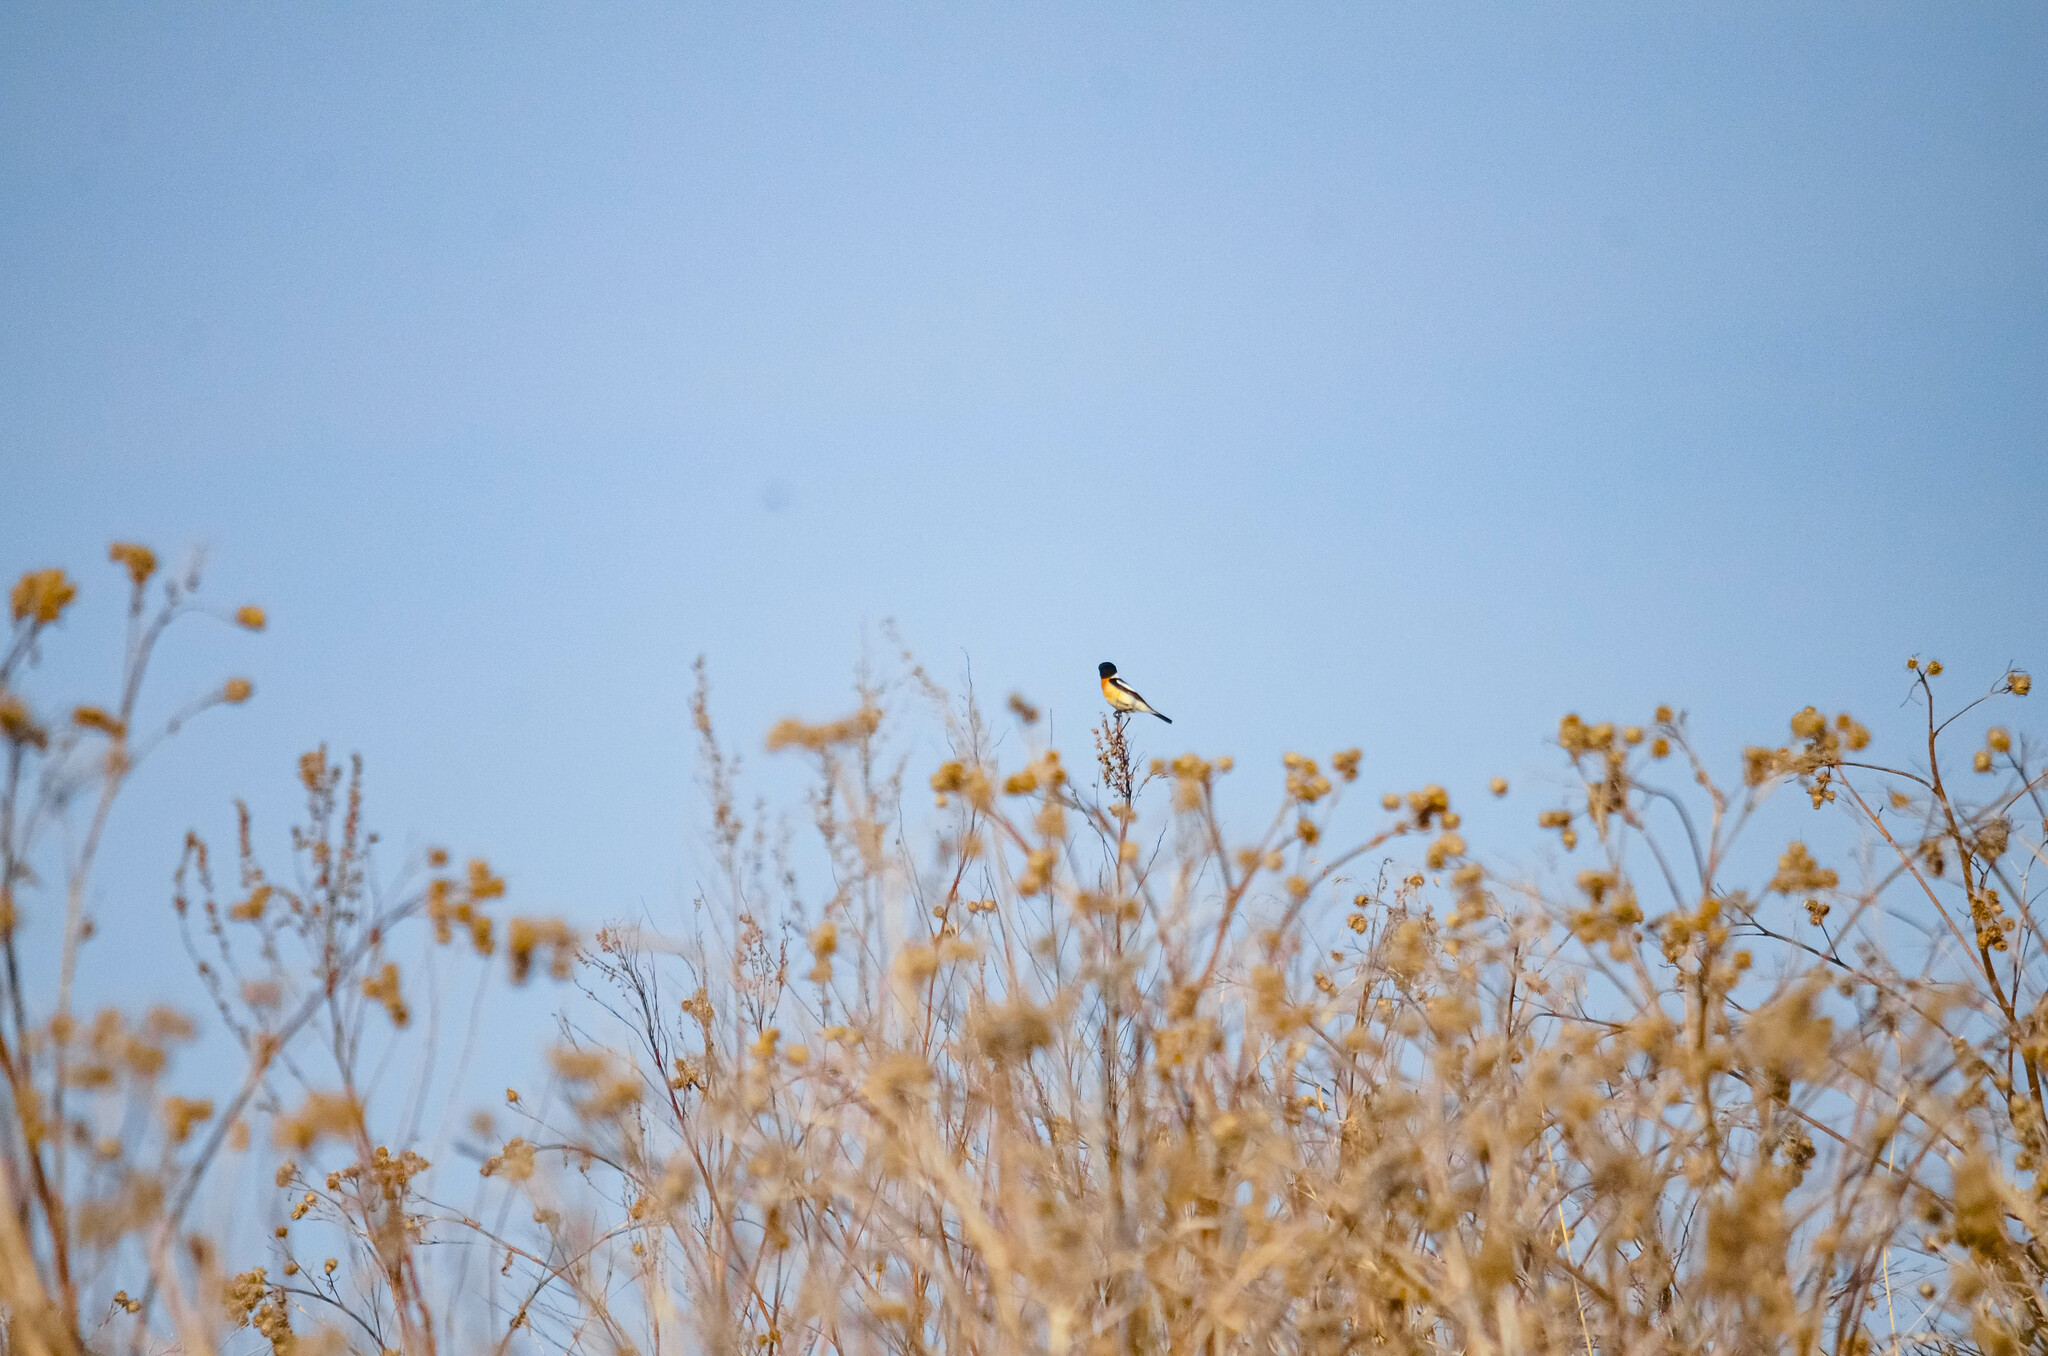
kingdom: Animalia
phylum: Chordata
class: Aves
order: Passeriformes
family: Muscicapidae
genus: Saxicola
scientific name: Saxicola maurus
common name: Siberian stonechat
